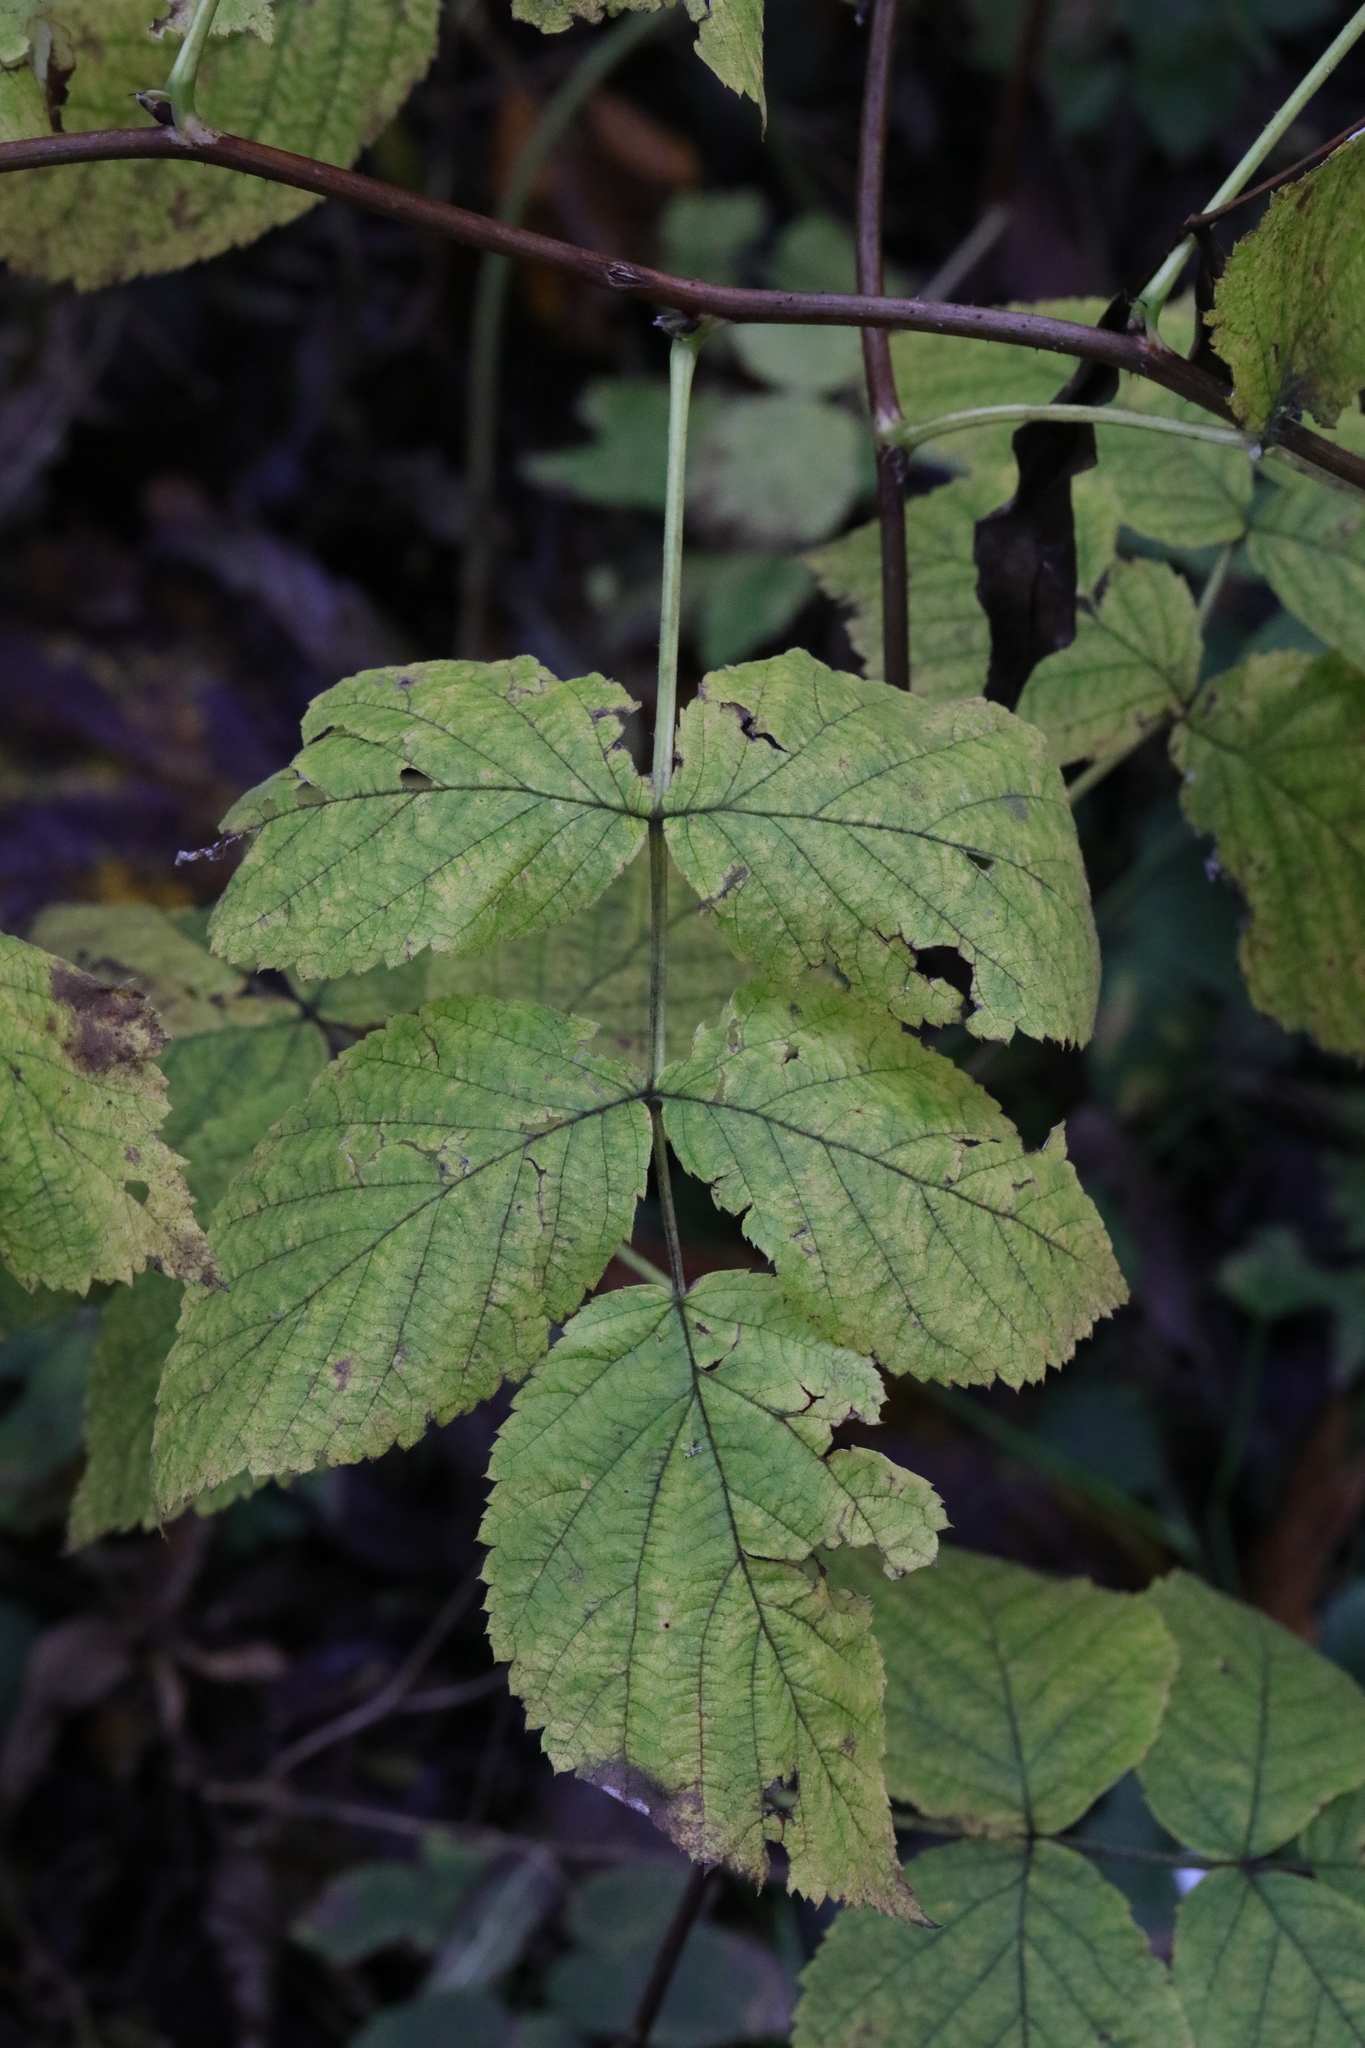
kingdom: Plantae
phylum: Tracheophyta
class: Magnoliopsida
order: Rosales
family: Rosaceae
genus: Rubus
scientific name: Rubus idaeus
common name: Raspberry
